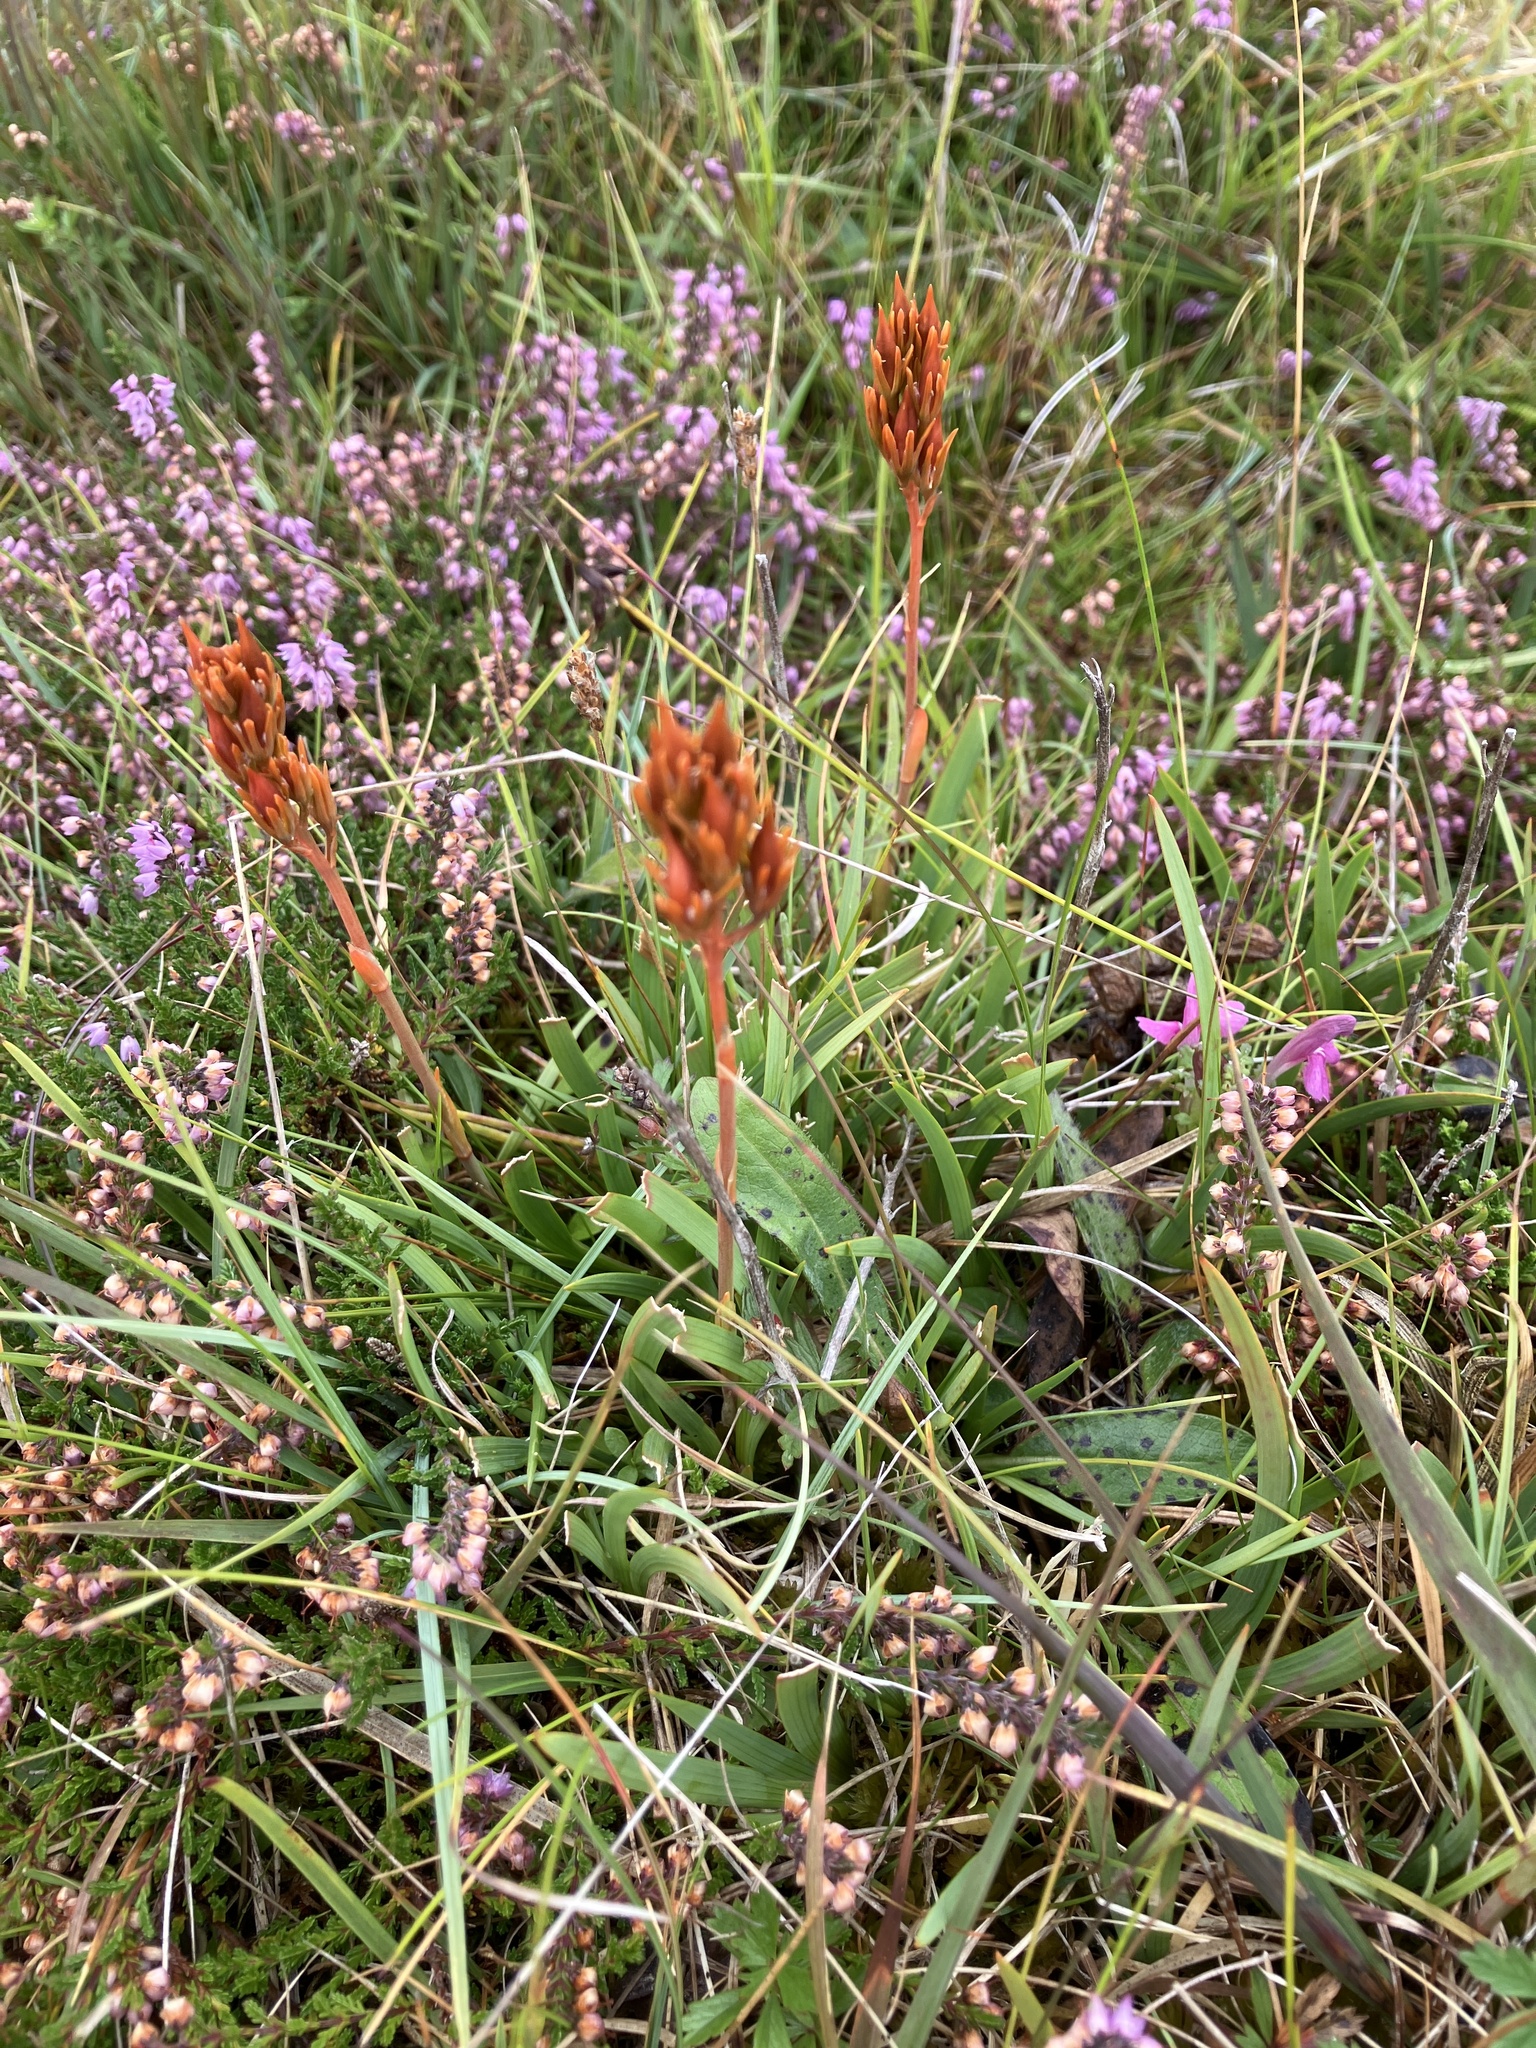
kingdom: Plantae
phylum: Tracheophyta
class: Liliopsida
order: Dioscoreales
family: Nartheciaceae
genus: Narthecium
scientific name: Narthecium ossifragum
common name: Bog asphodel
